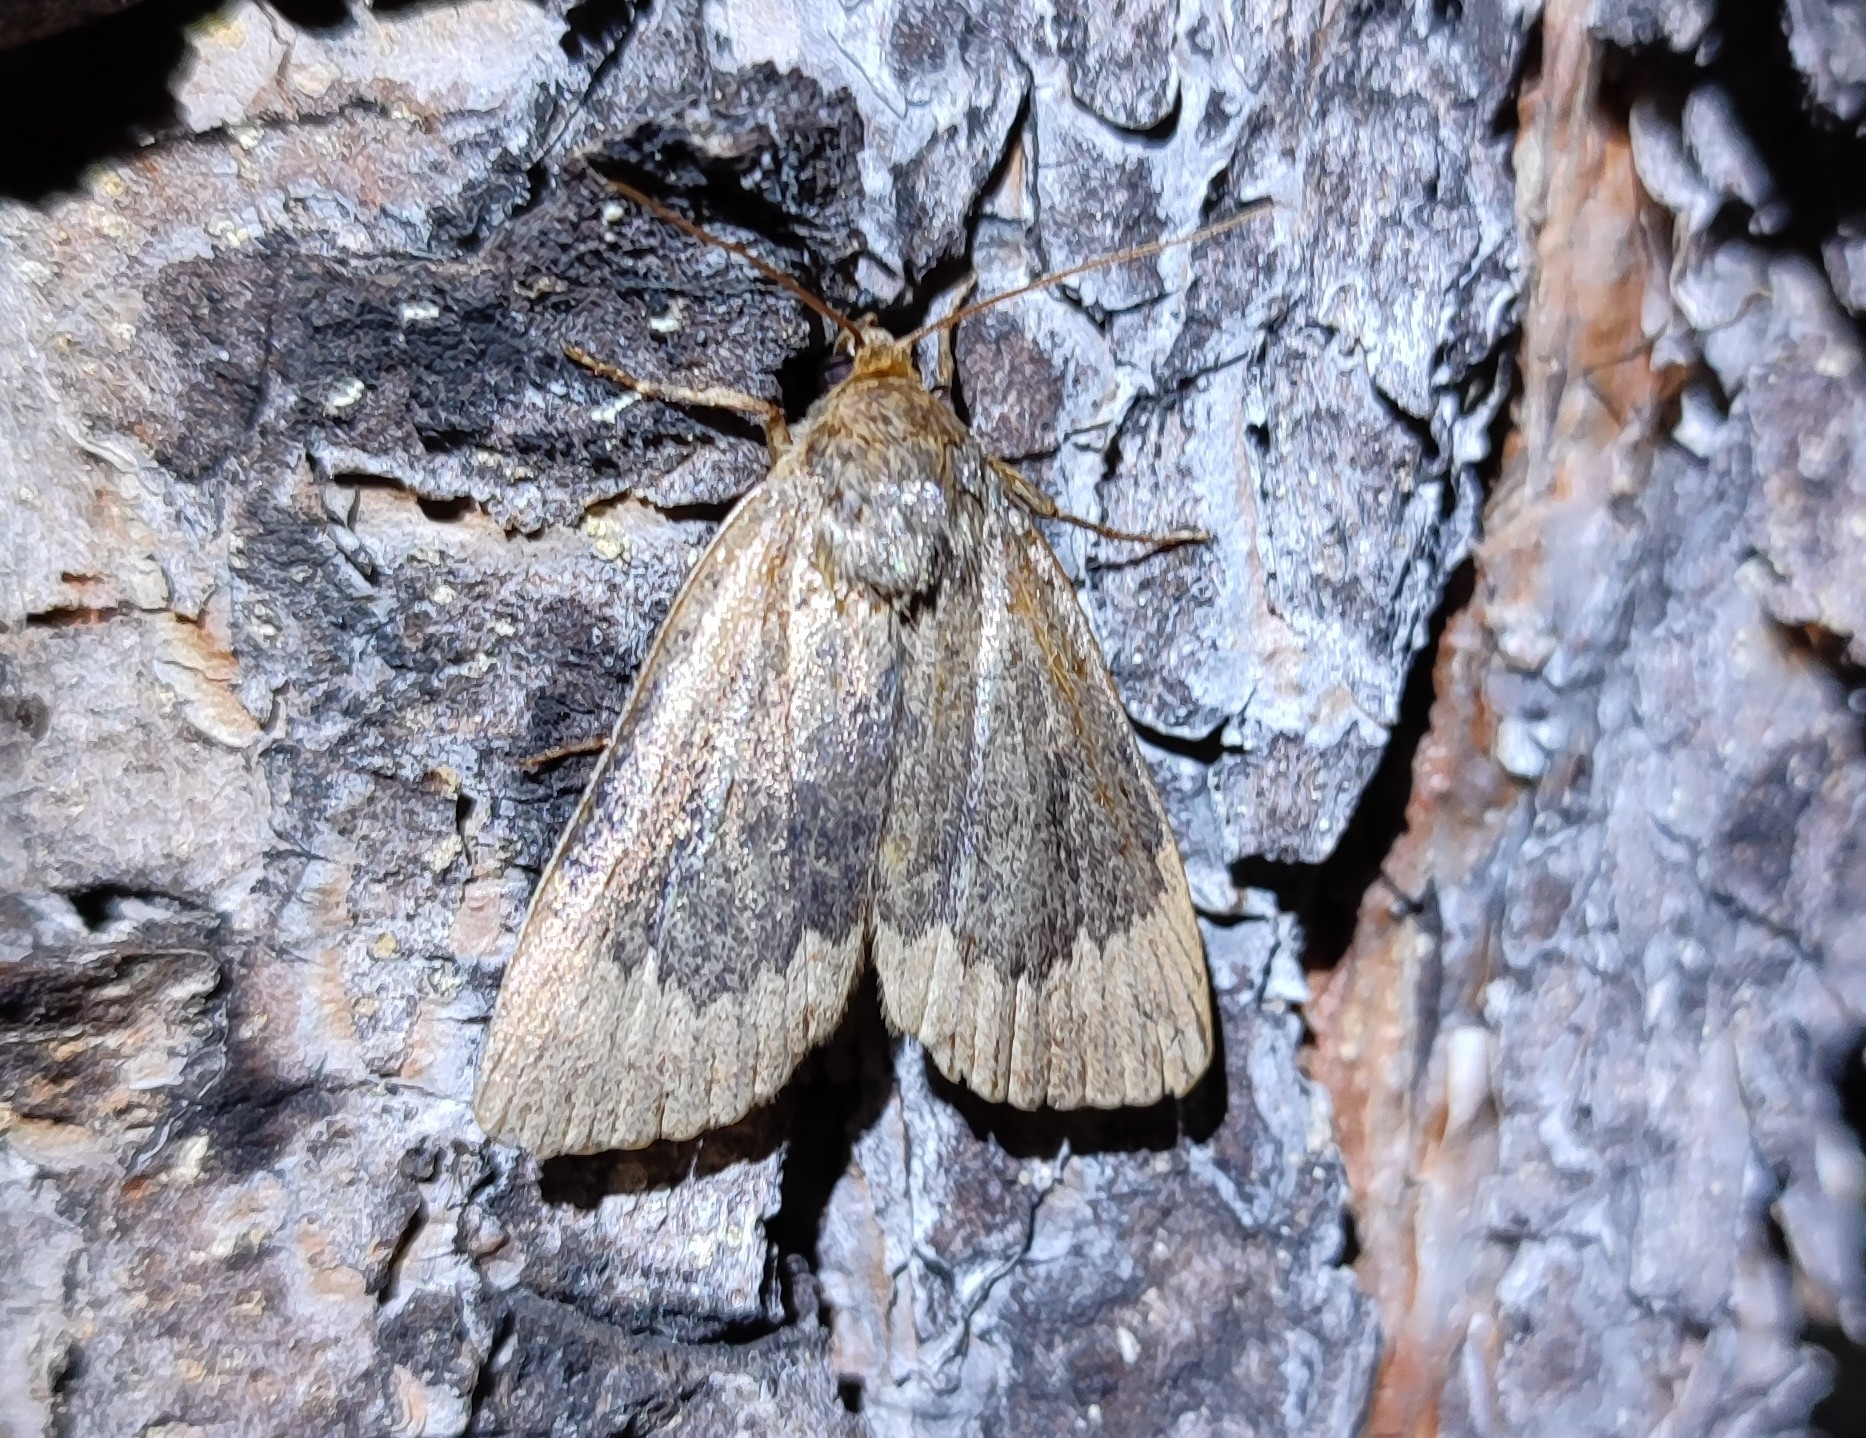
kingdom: Animalia
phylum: Arthropoda
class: Insecta
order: Lepidoptera
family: Noctuidae
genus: Amphipyra
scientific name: Amphipyra perflua
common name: Larger pale-tipped black moth
